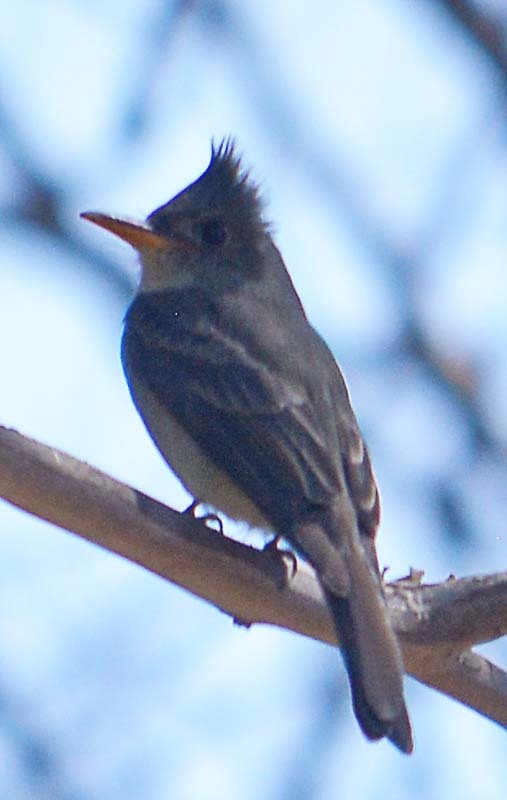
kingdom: Animalia
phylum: Chordata
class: Aves
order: Passeriformes
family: Tyrannidae
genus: Contopus
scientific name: Contopus pertinax
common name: Greater pewee
